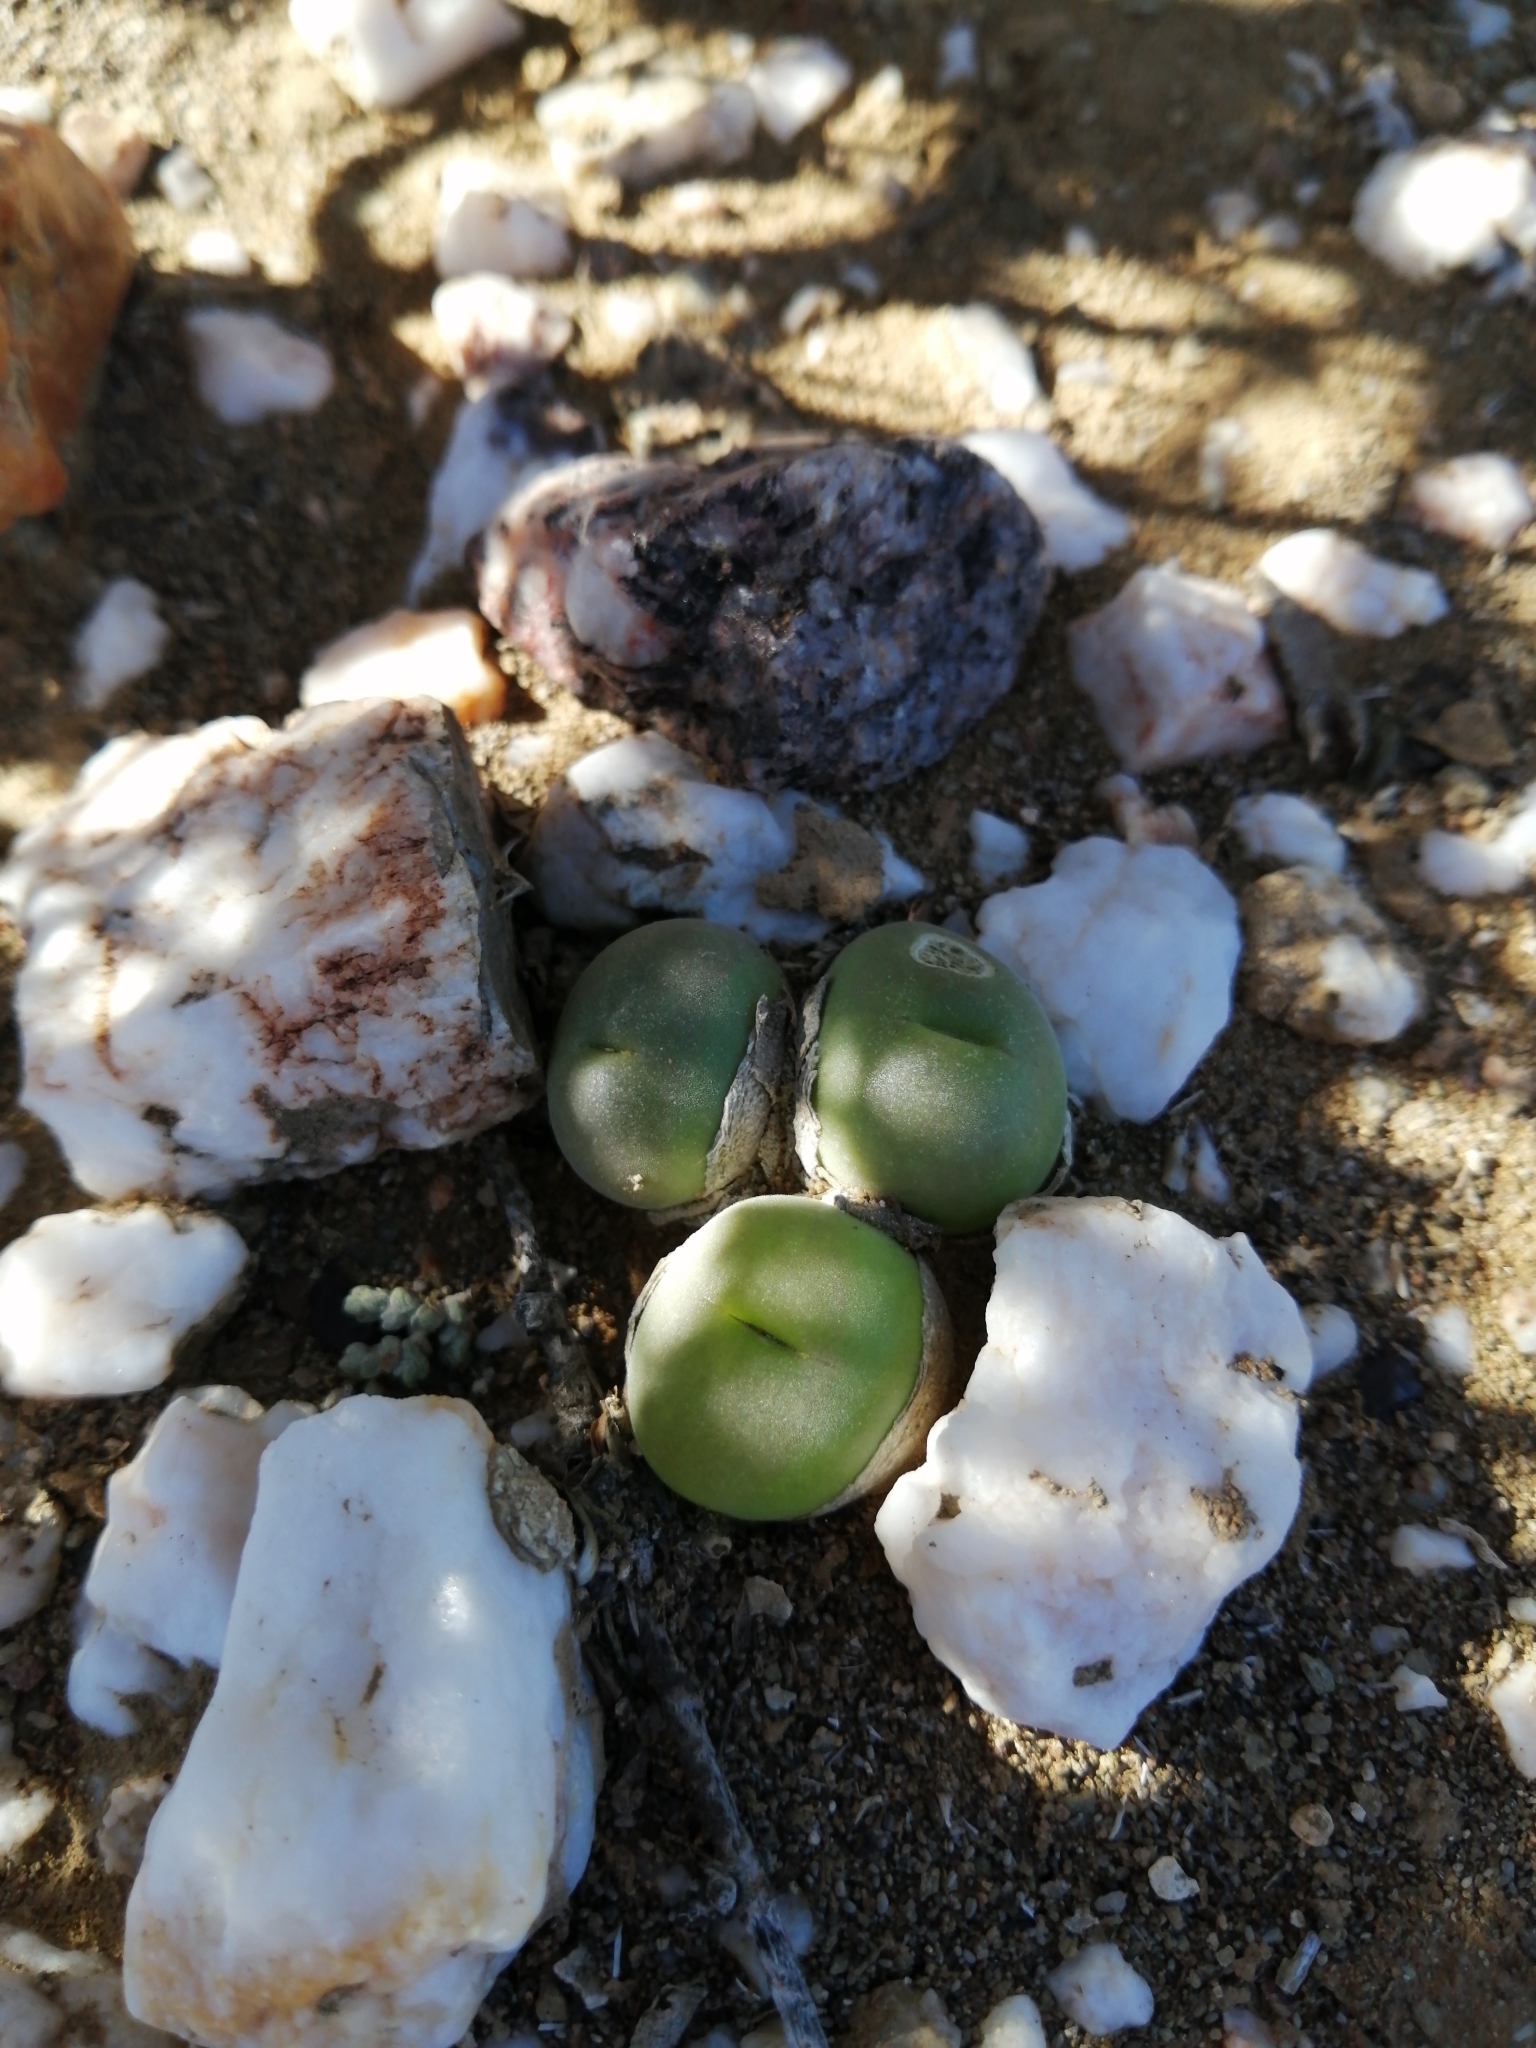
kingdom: Plantae
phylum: Tracheophyta
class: Magnoliopsida
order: Caryophyllales
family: Aizoaceae
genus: Gibbaeum
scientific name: Gibbaeum nuciforme
